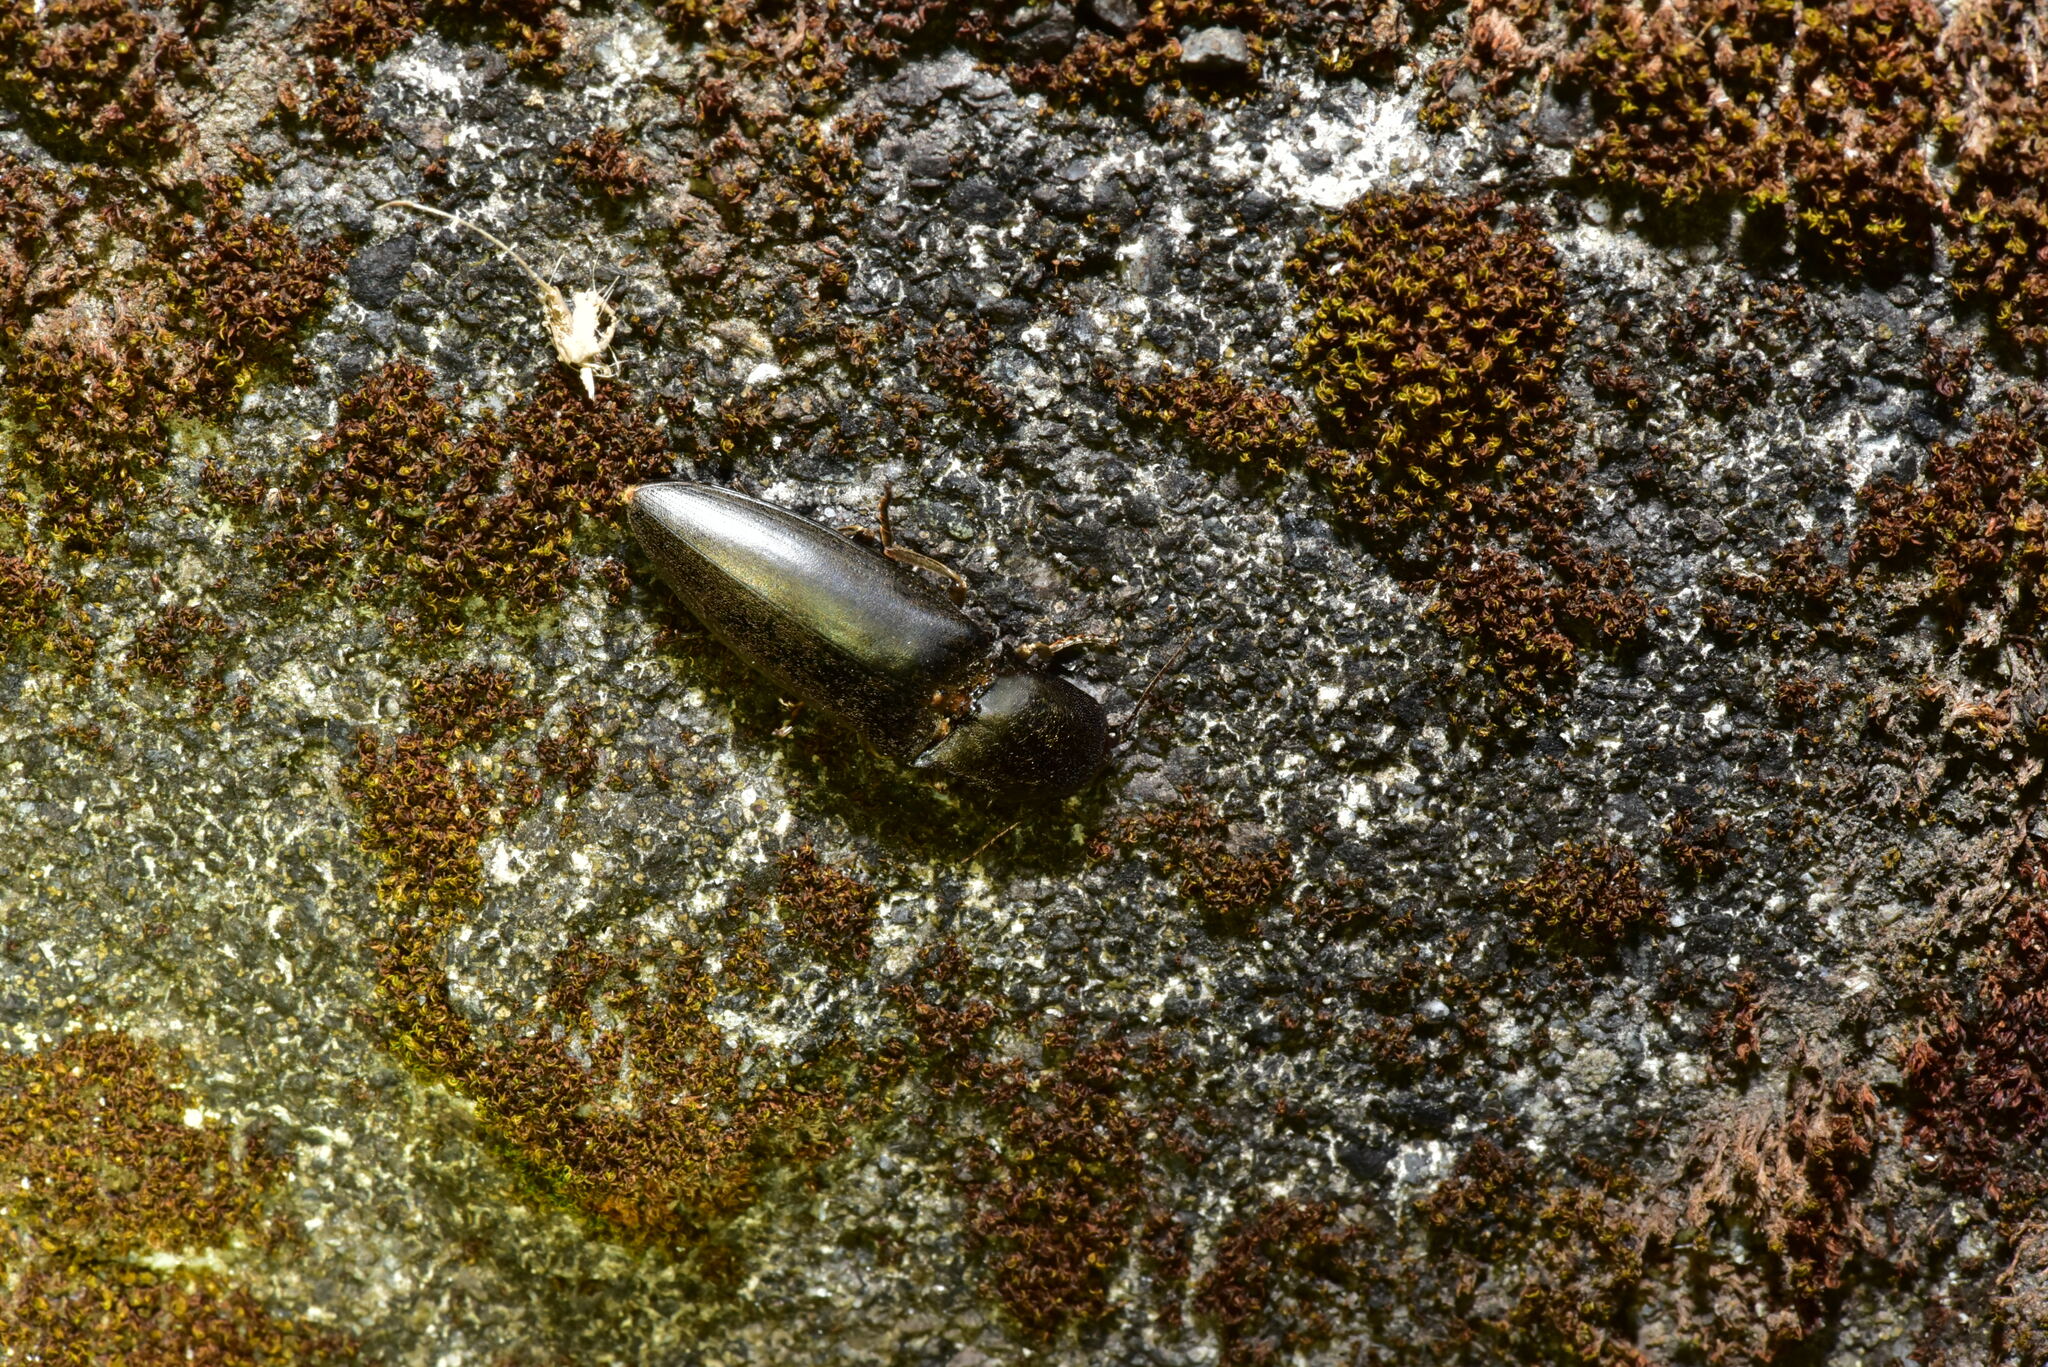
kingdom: Animalia
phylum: Arthropoda
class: Insecta
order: Coleoptera
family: Elateridae
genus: Lanelater
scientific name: Lanelater aequalis
